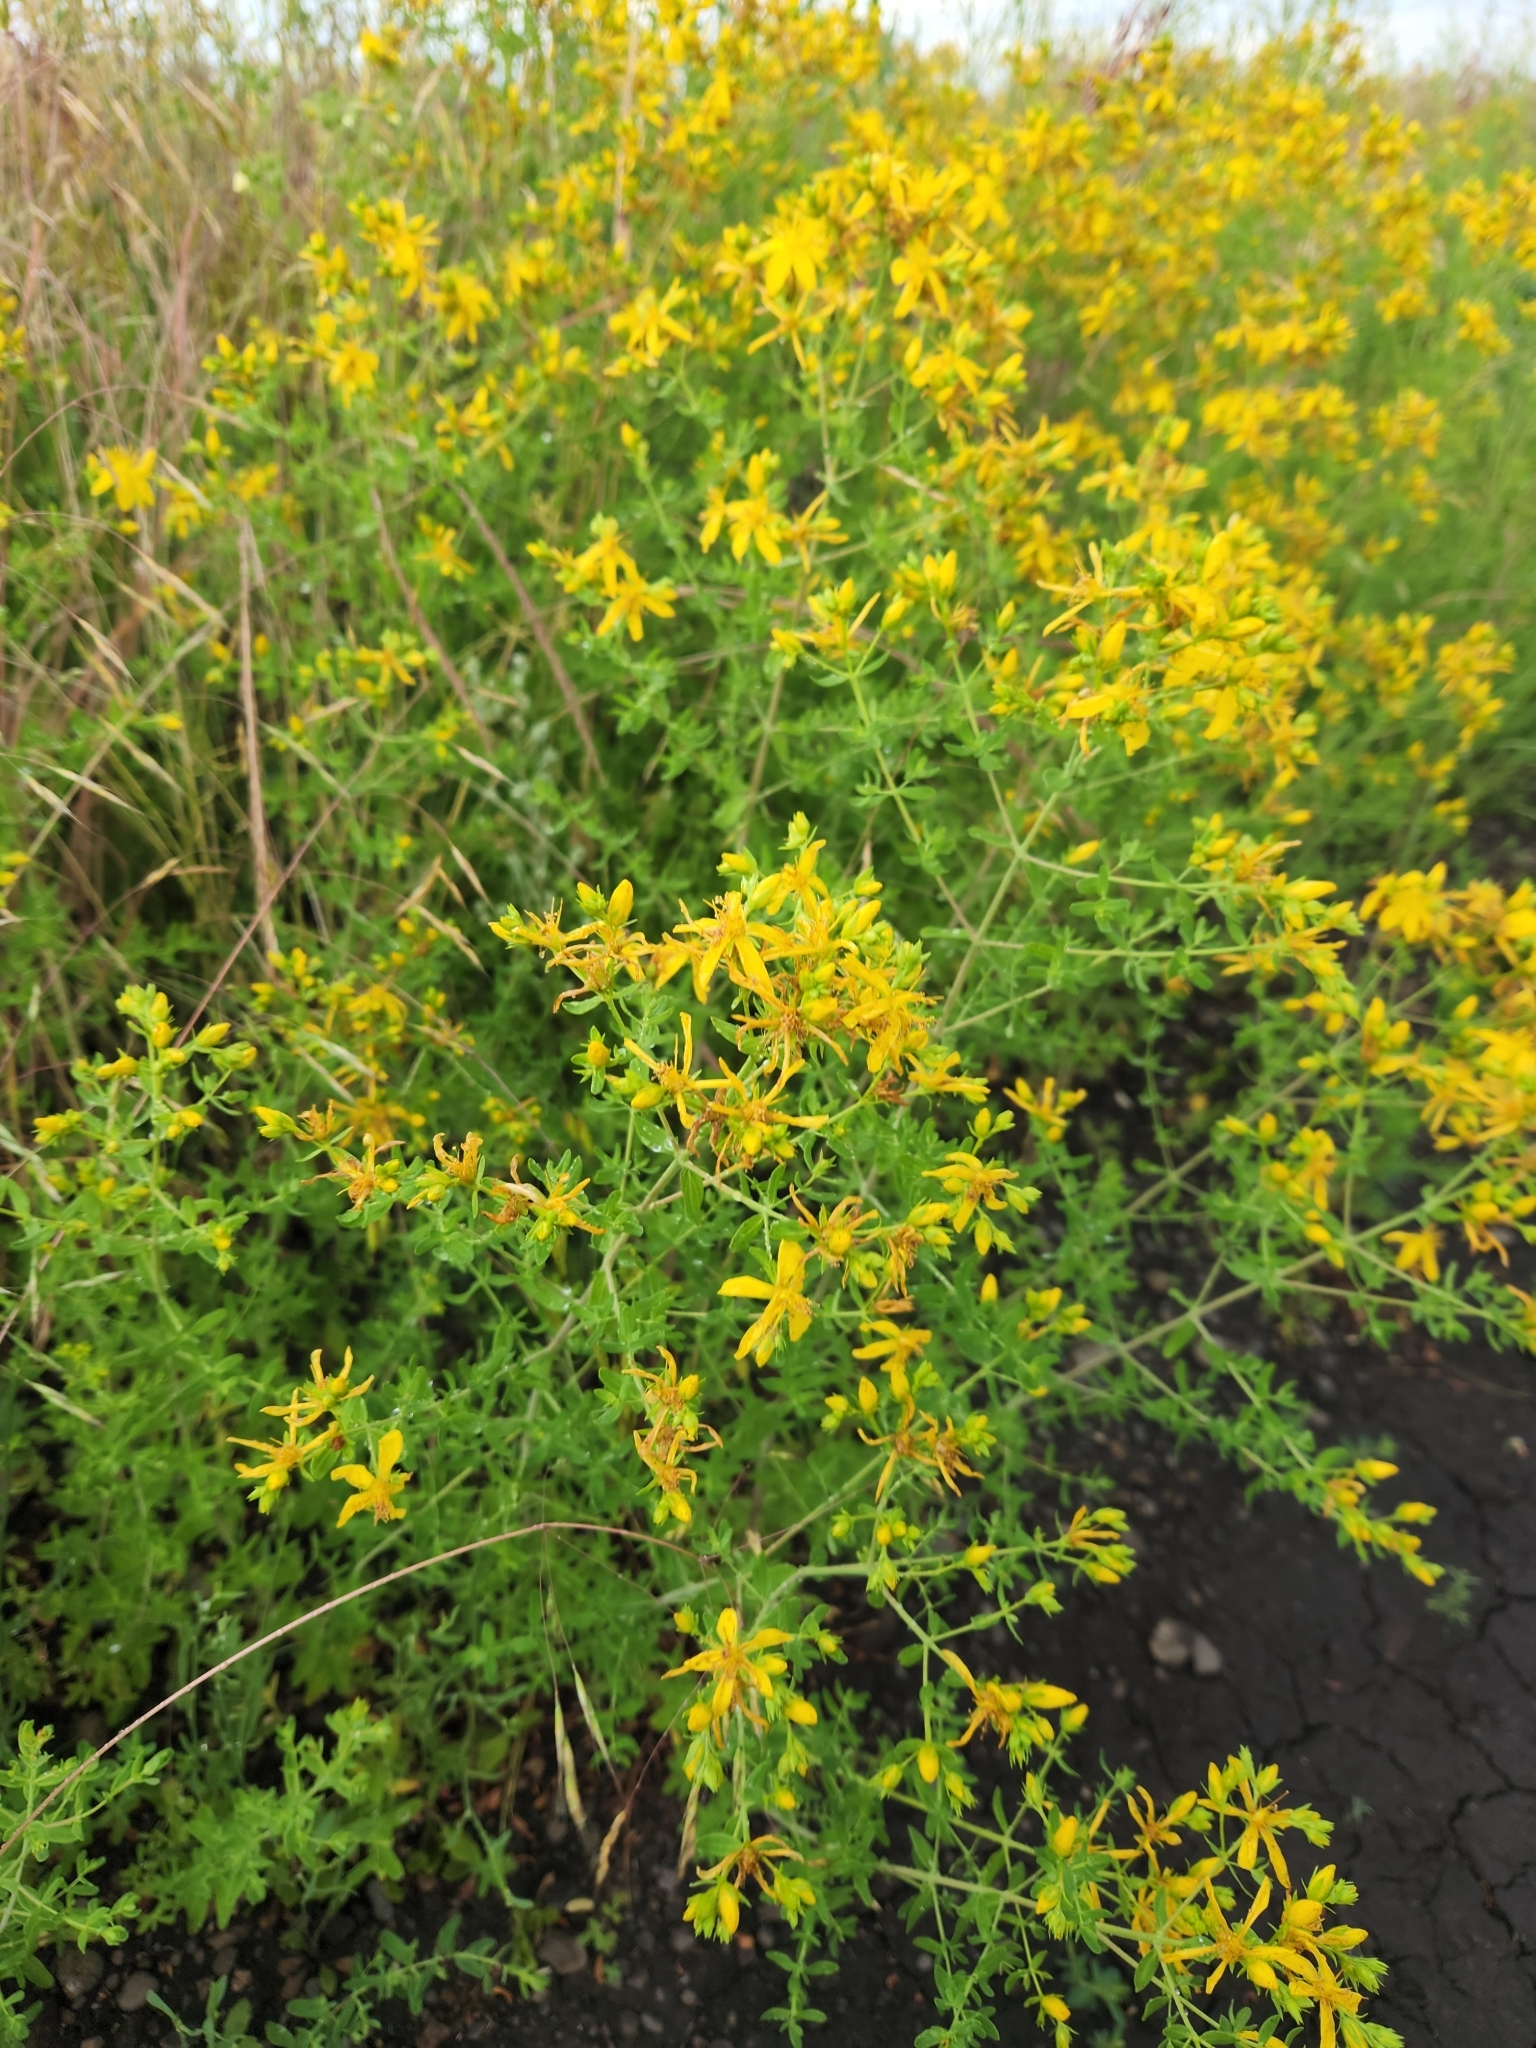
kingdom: Plantae
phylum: Tracheophyta
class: Magnoliopsida
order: Malpighiales
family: Hypericaceae
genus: Hypericum
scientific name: Hypericum perforatum
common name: Common st. johnswort
